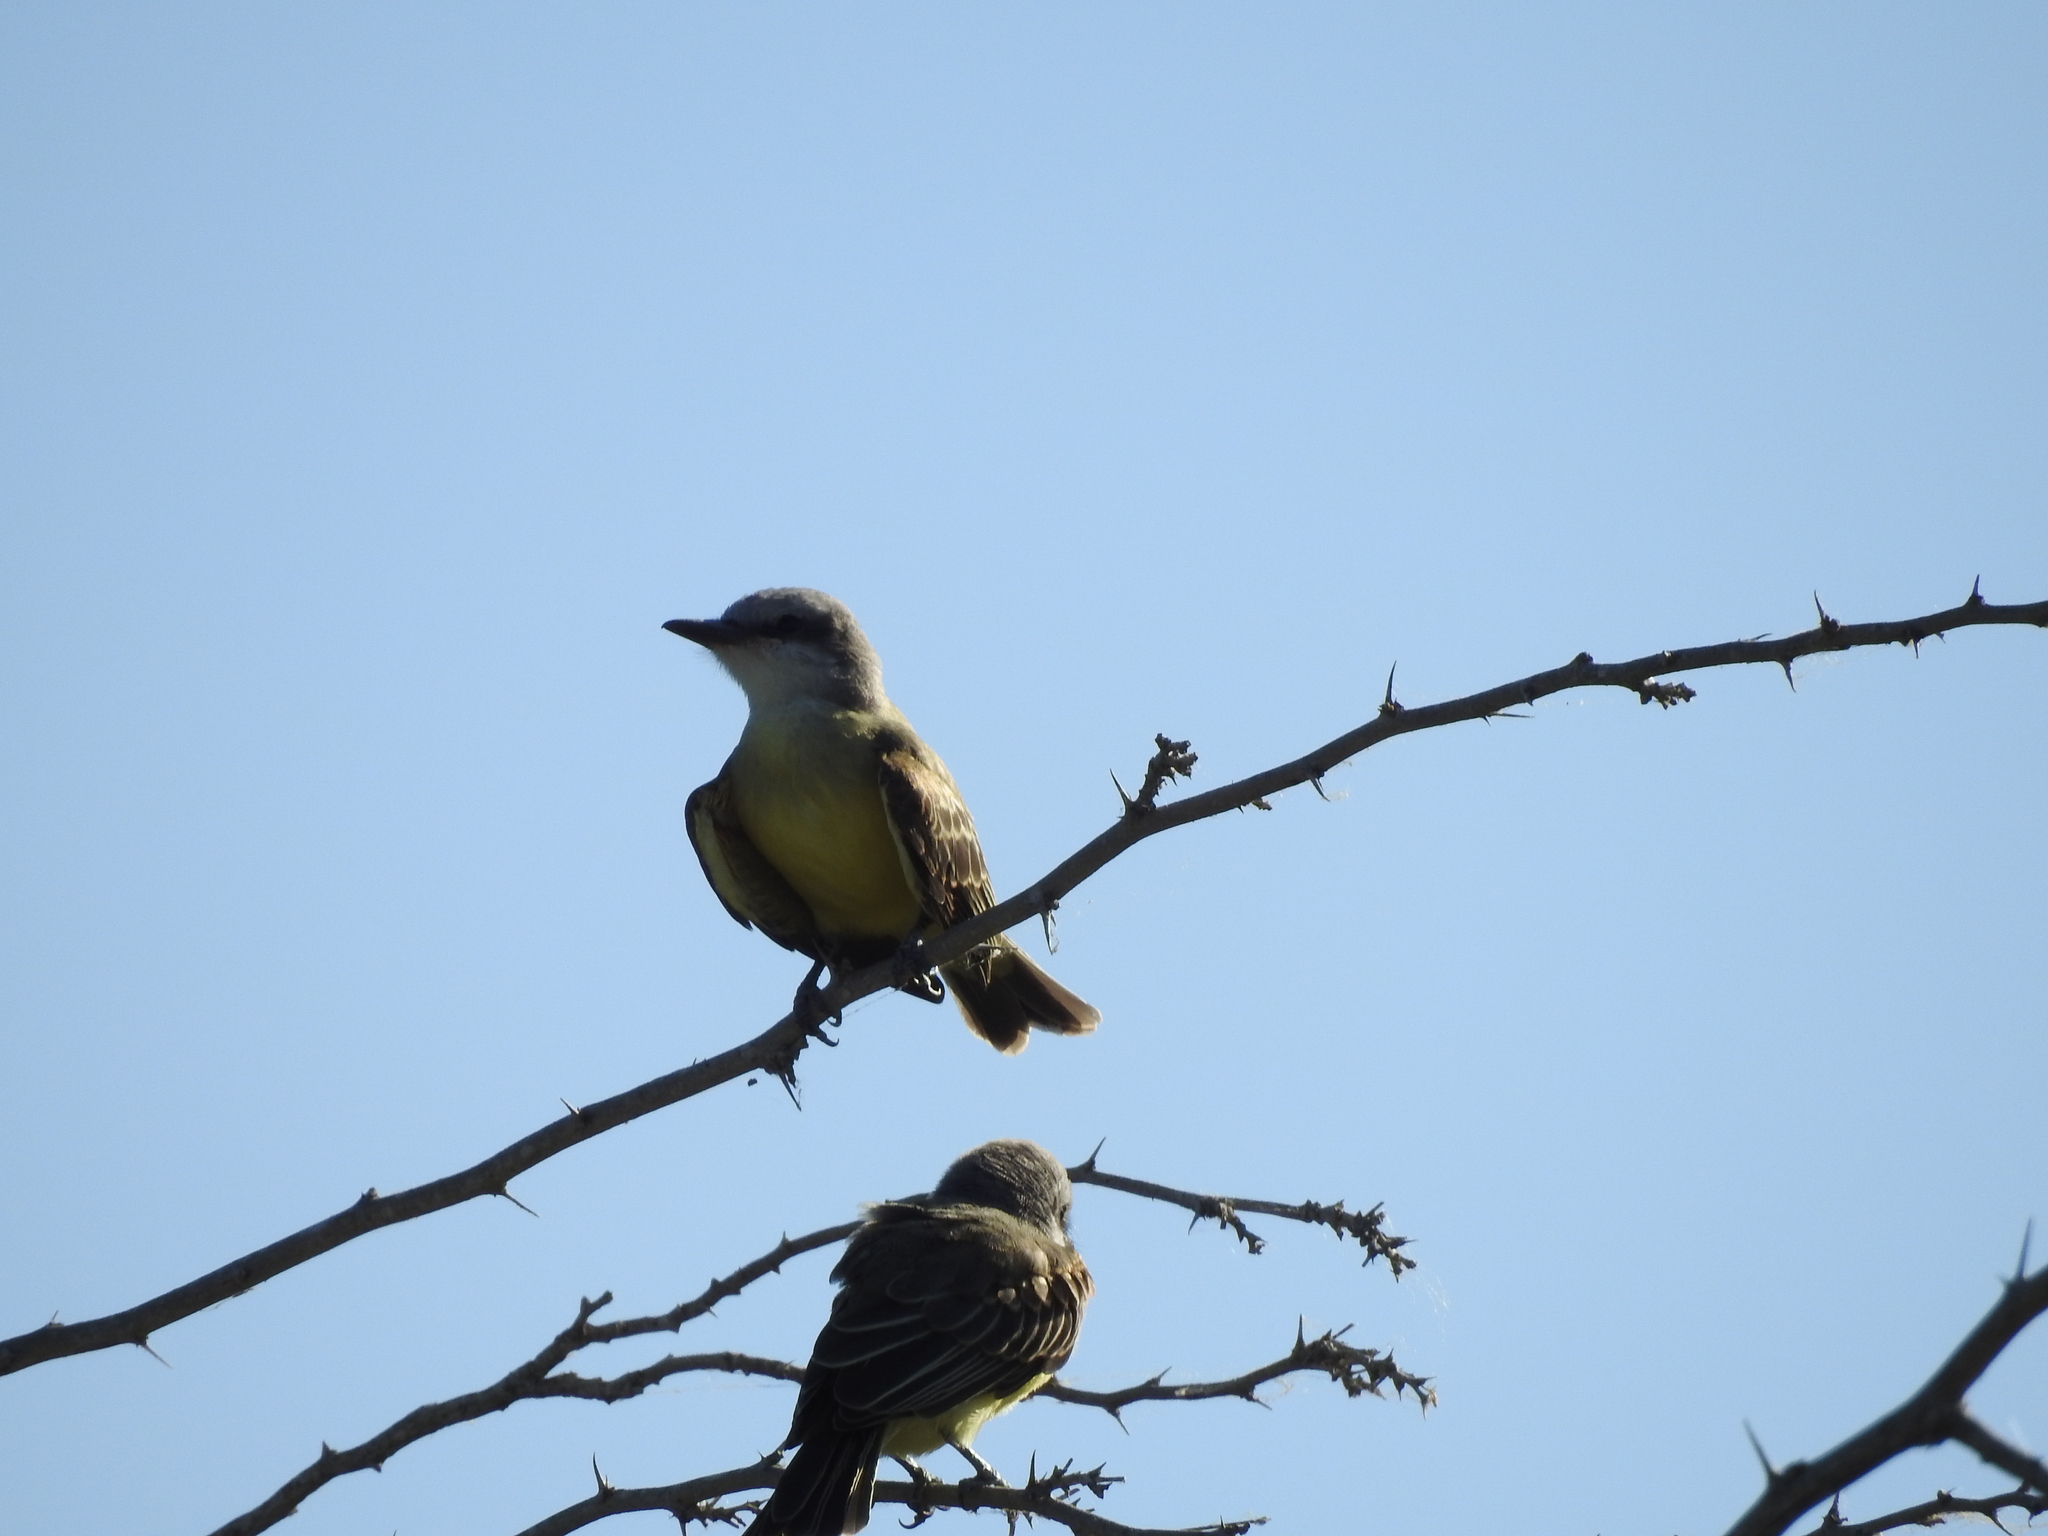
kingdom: Animalia
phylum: Chordata
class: Aves
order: Passeriformes
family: Tyrannidae
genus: Tyrannus
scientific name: Tyrannus melancholicus
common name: Tropical kingbird
